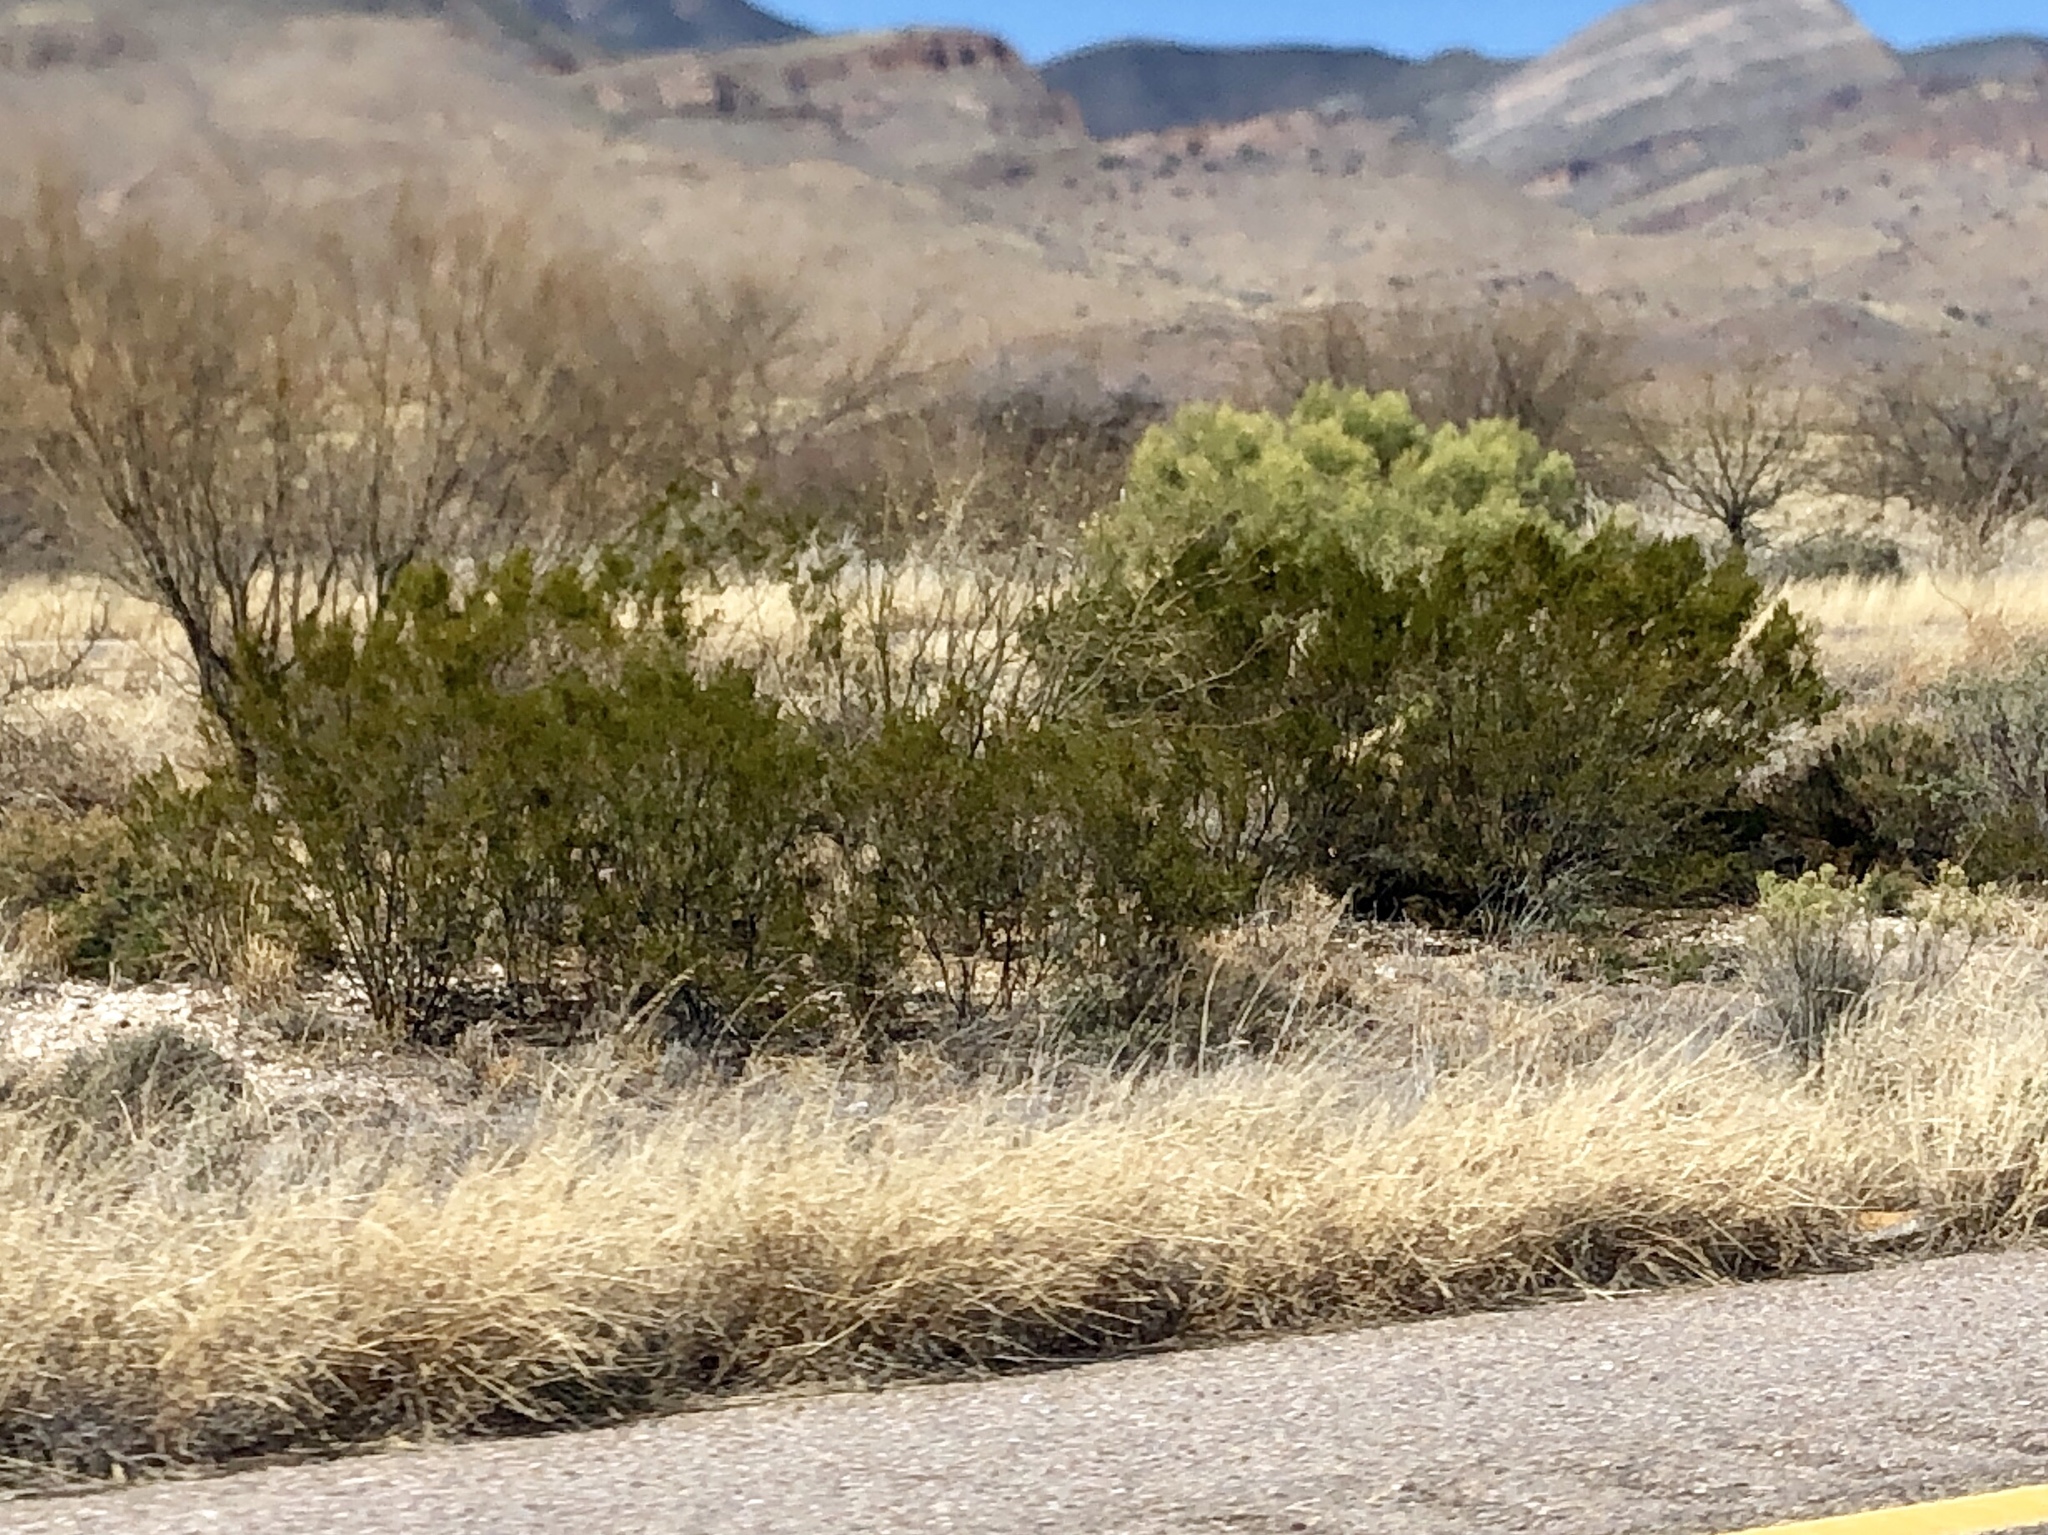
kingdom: Plantae
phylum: Tracheophyta
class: Magnoliopsida
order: Zygophyllales
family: Zygophyllaceae
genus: Larrea
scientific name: Larrea tridentata
